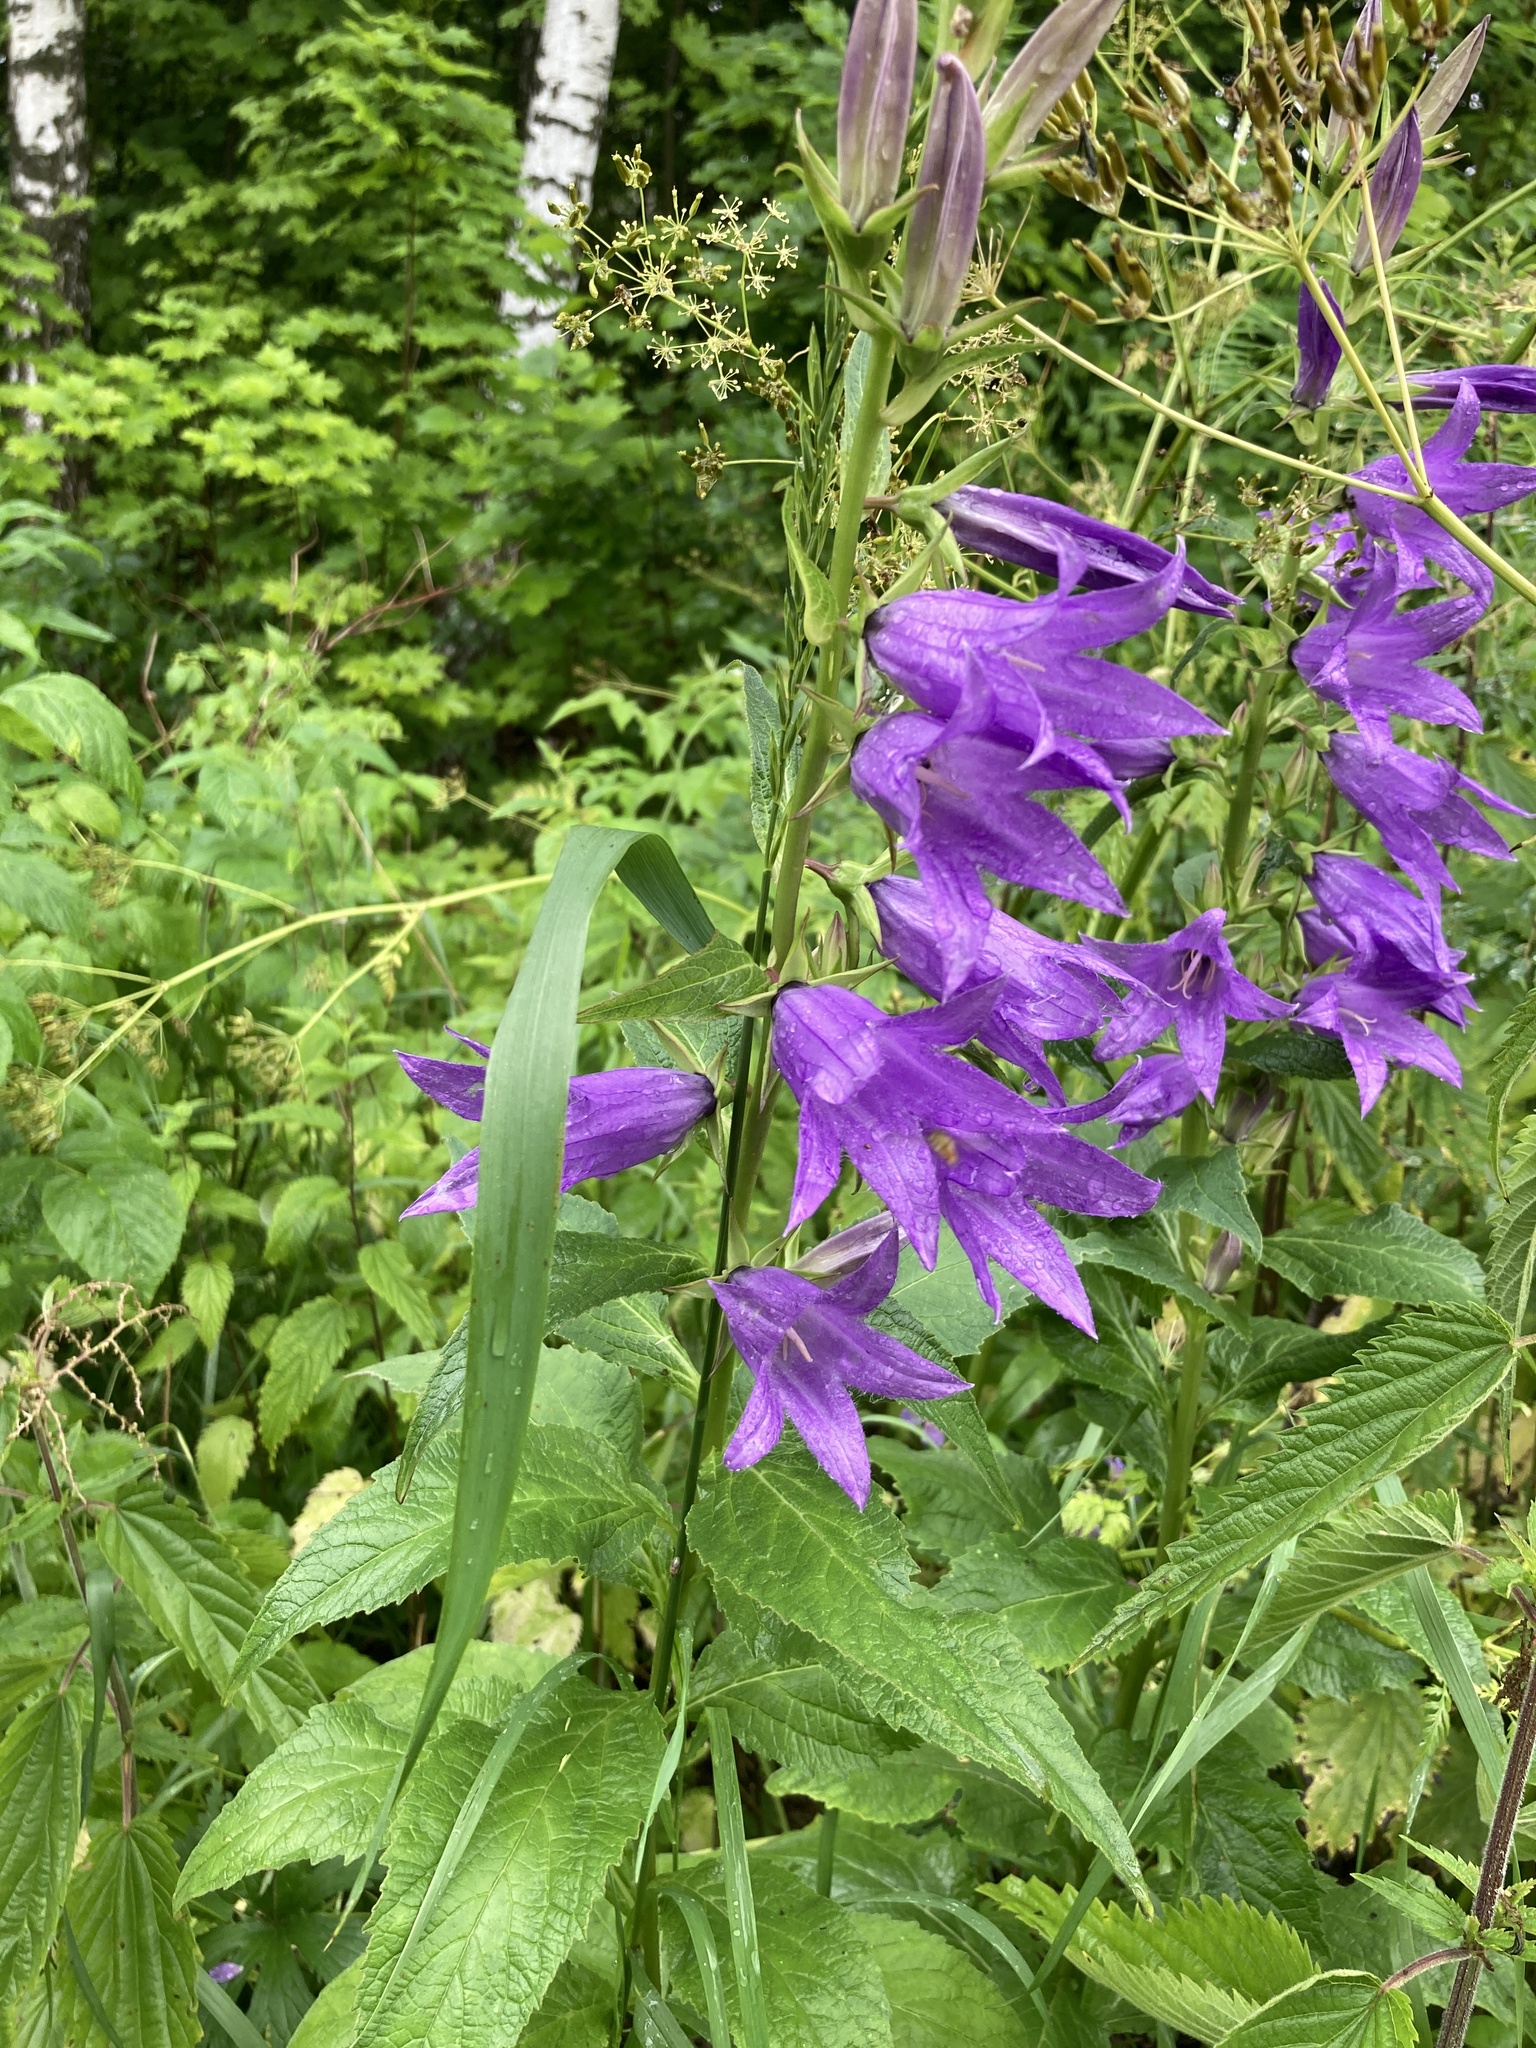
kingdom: Plantae
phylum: Tracheophyta
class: Magnoliopsida
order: Asterales
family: Campanulaceae
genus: Campanula
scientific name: Campanula latifolia
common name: Giant bellflower
